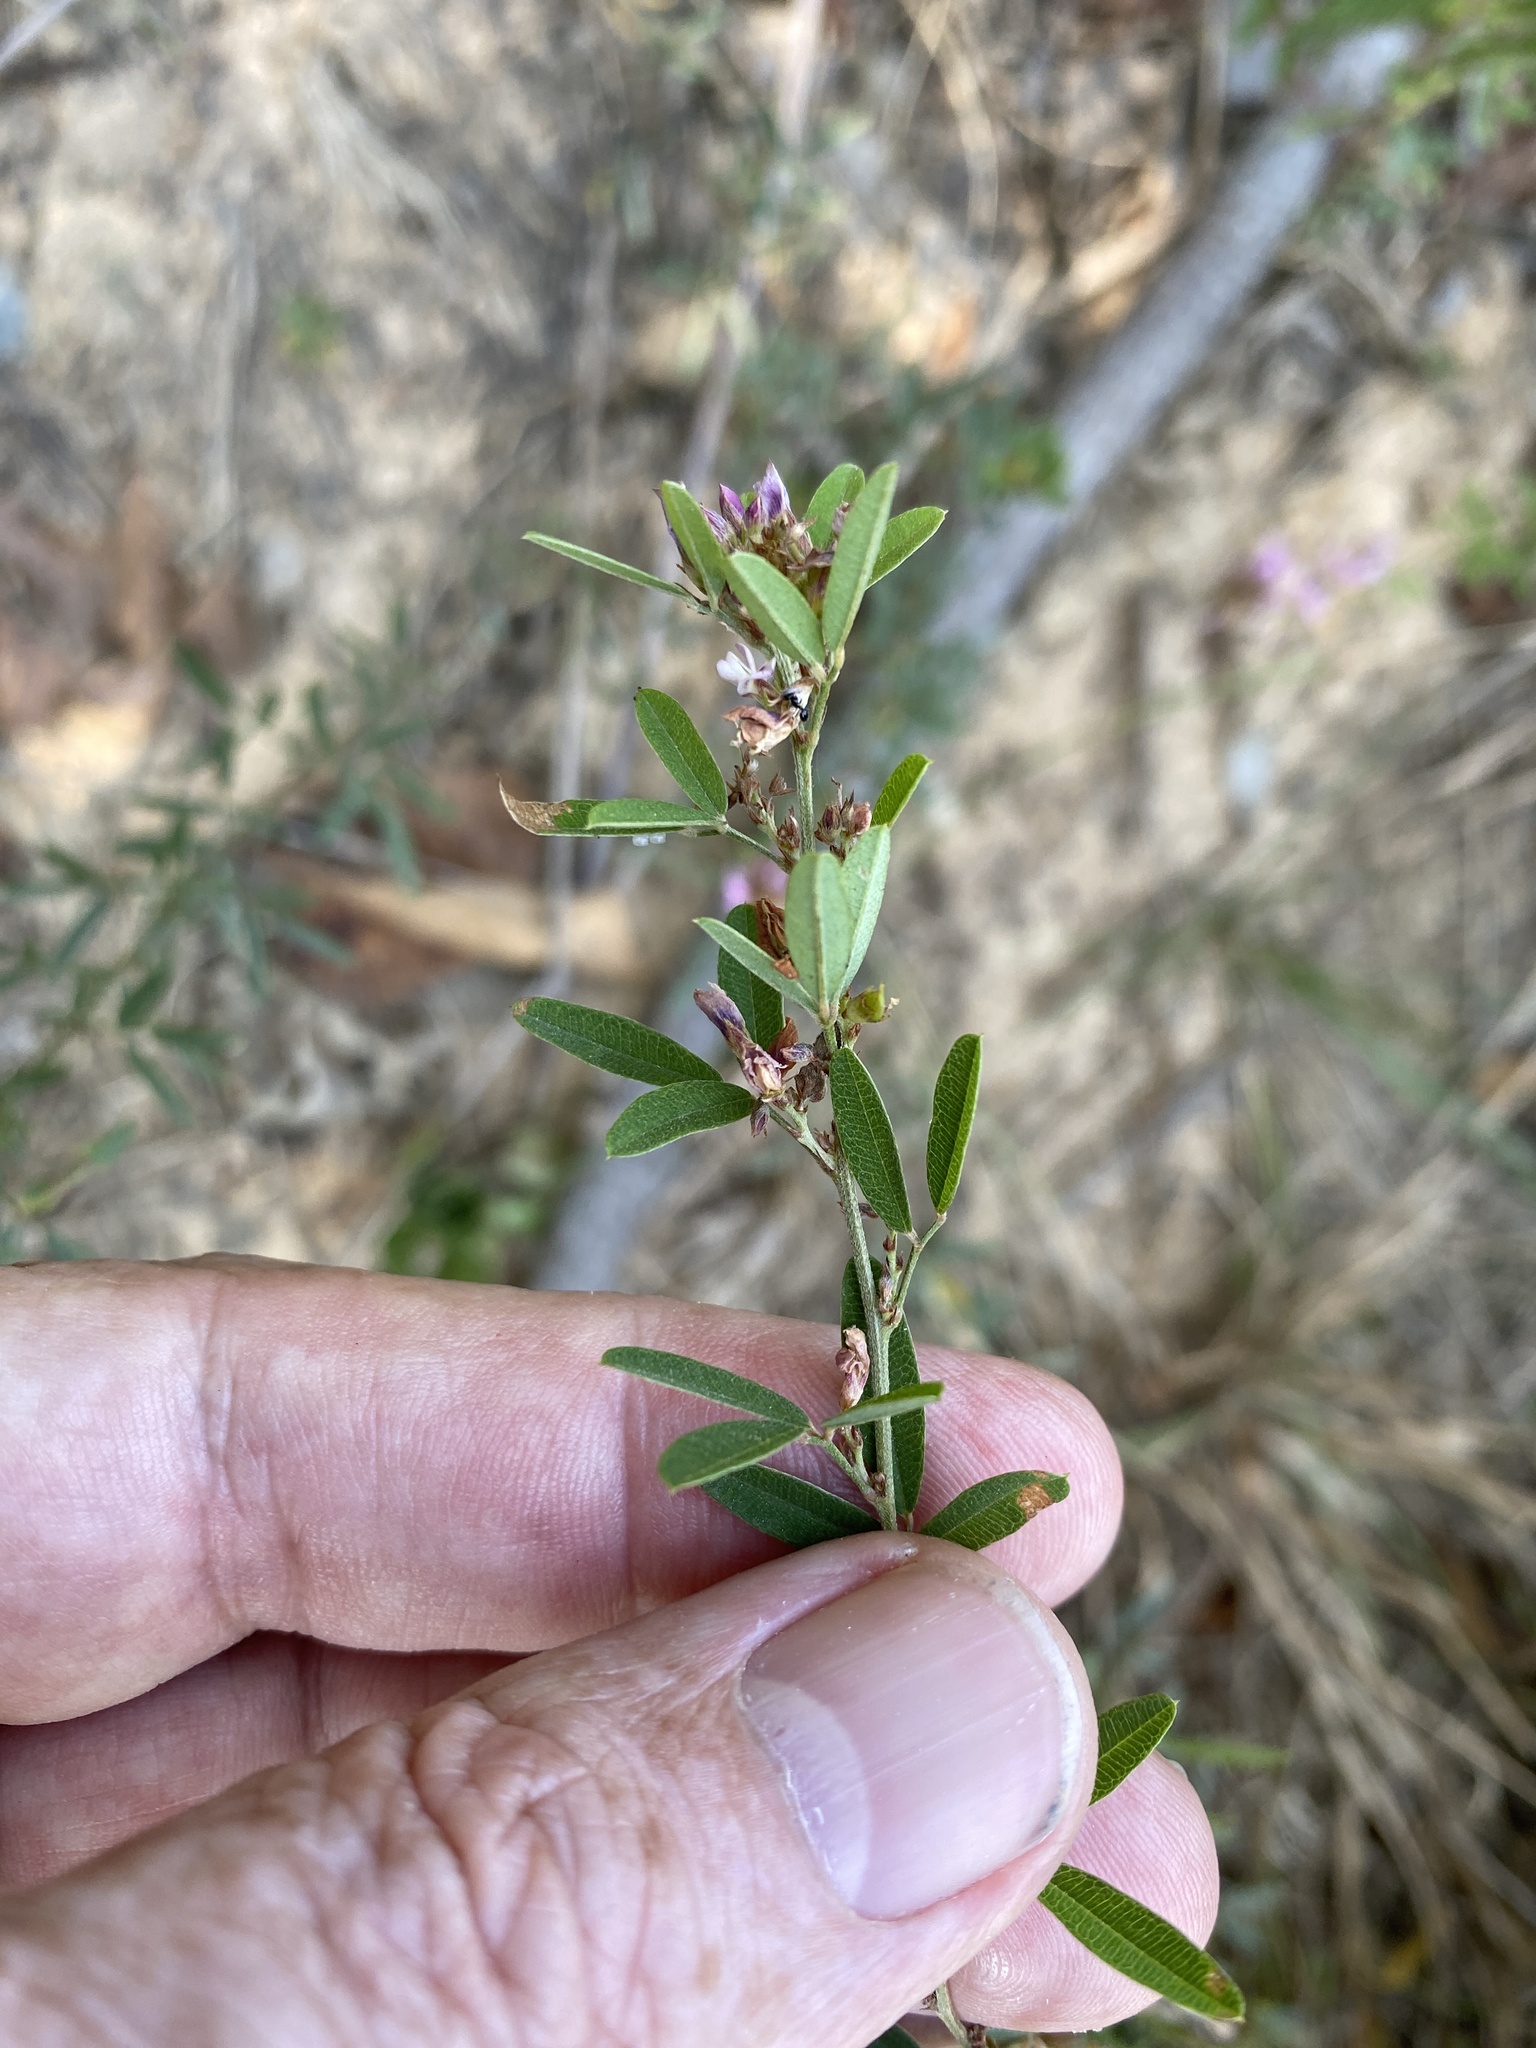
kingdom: Plantae
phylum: Tracheophyta
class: Magnoliopsida
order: Fabales
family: Fabaceae
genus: Lespedeza
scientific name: Lespedeza virginica
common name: Slender bush-clover
